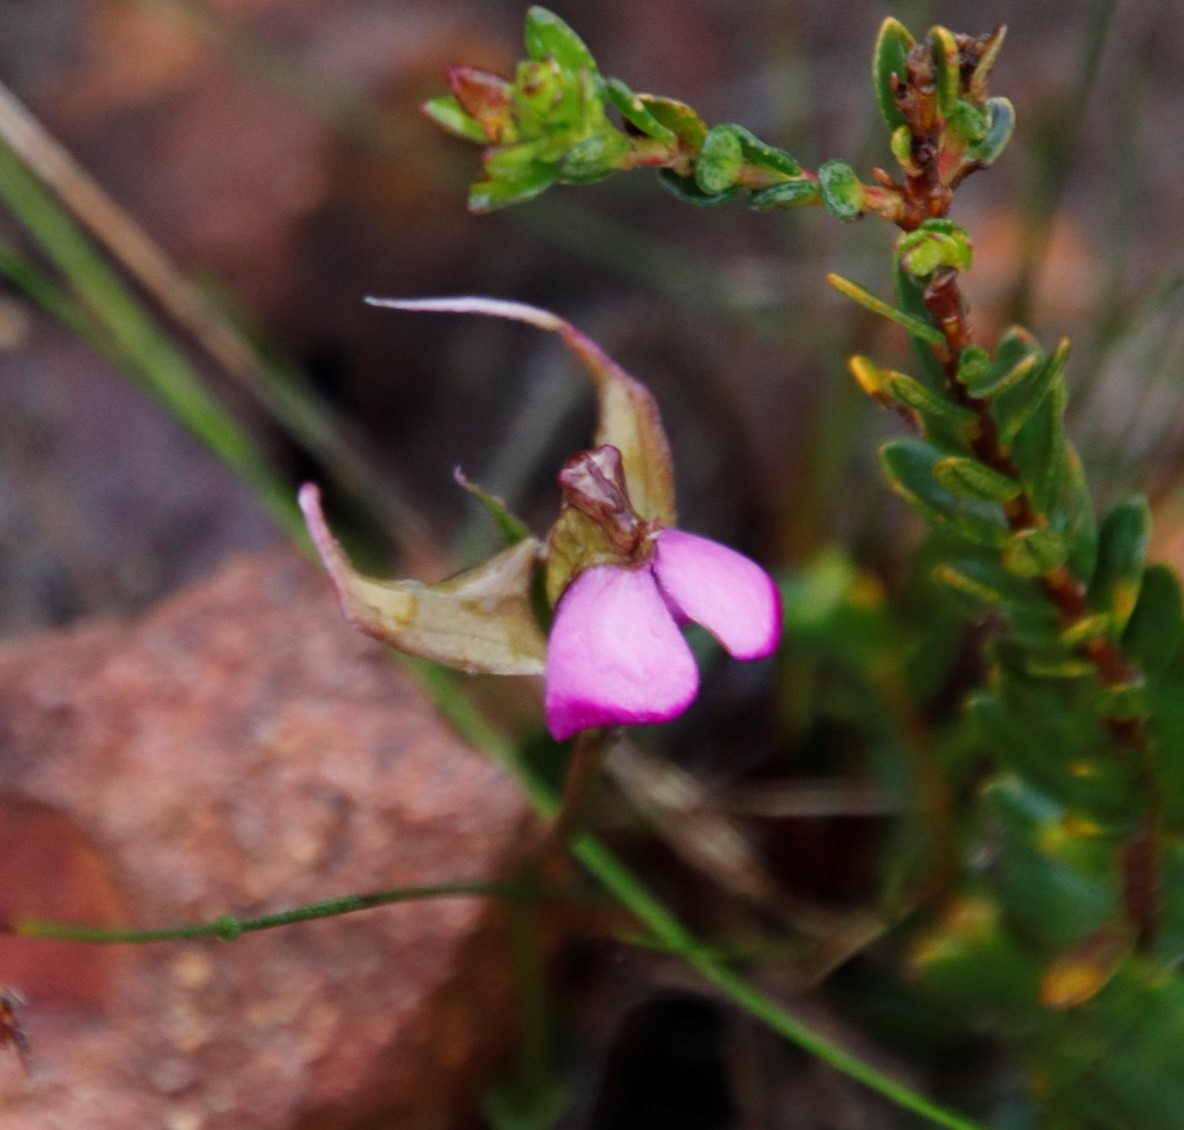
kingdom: Plantae
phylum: Tracheophyta
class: Liliopsida
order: Asparagales
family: Orchidaceae
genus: Disperis
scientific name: Disperis capensis
